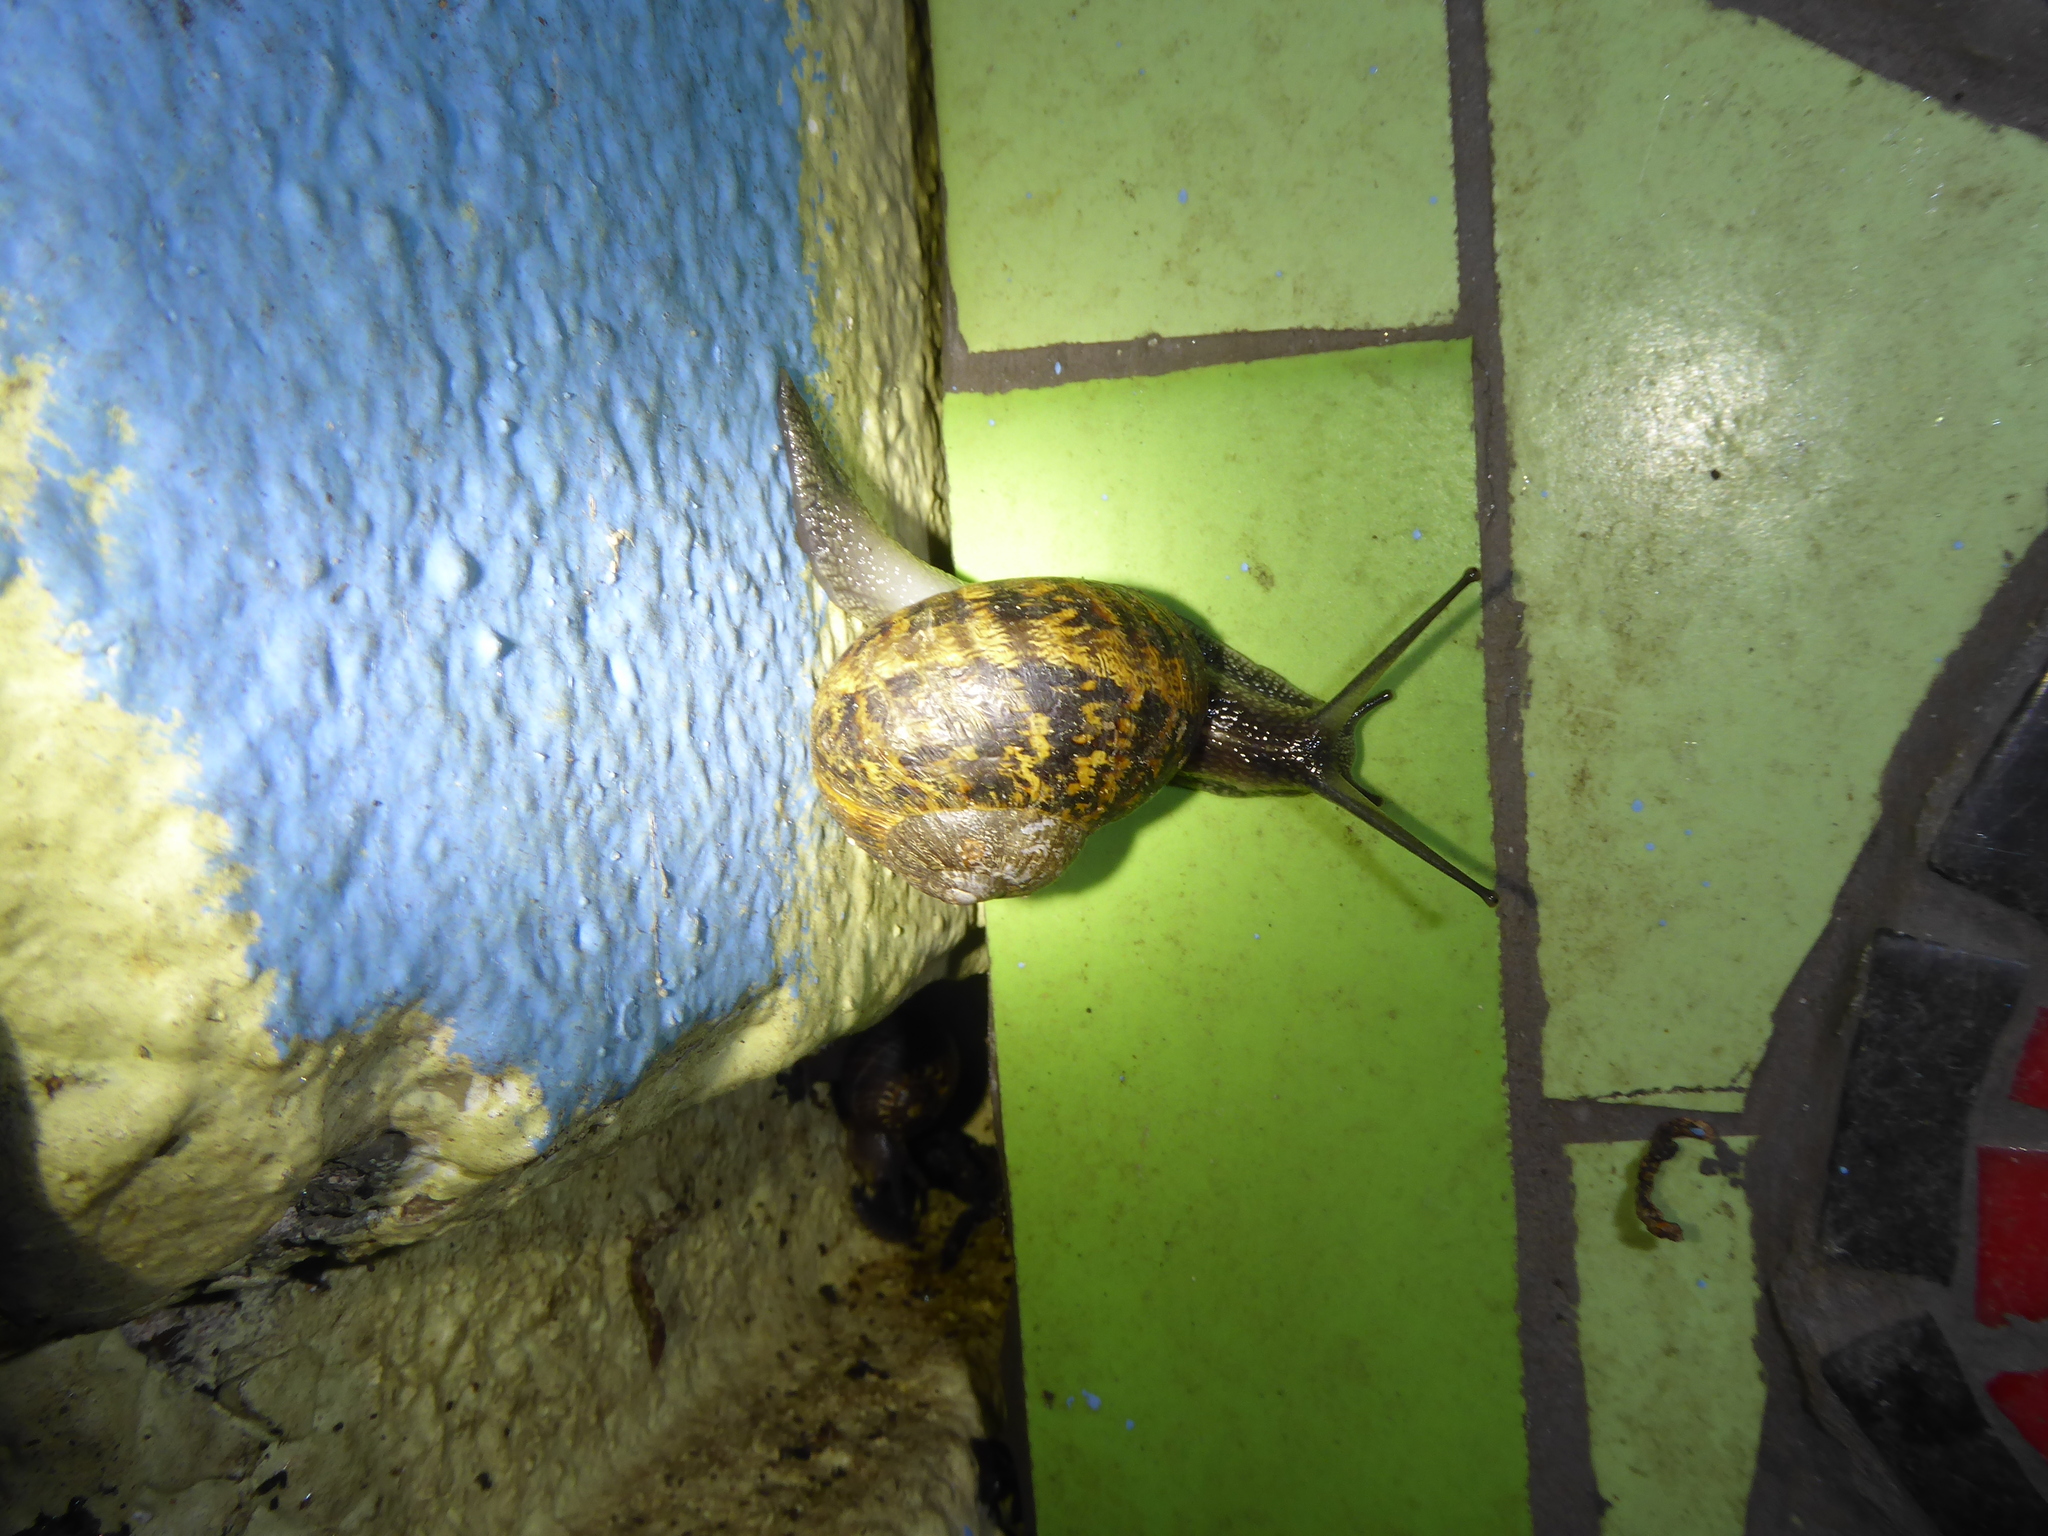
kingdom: Animalia
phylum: Mollusca
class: Gastropoda
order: Stylommatophora
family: Helicidae
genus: Cornu
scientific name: Cornu aspersum
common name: Brown garden snail
